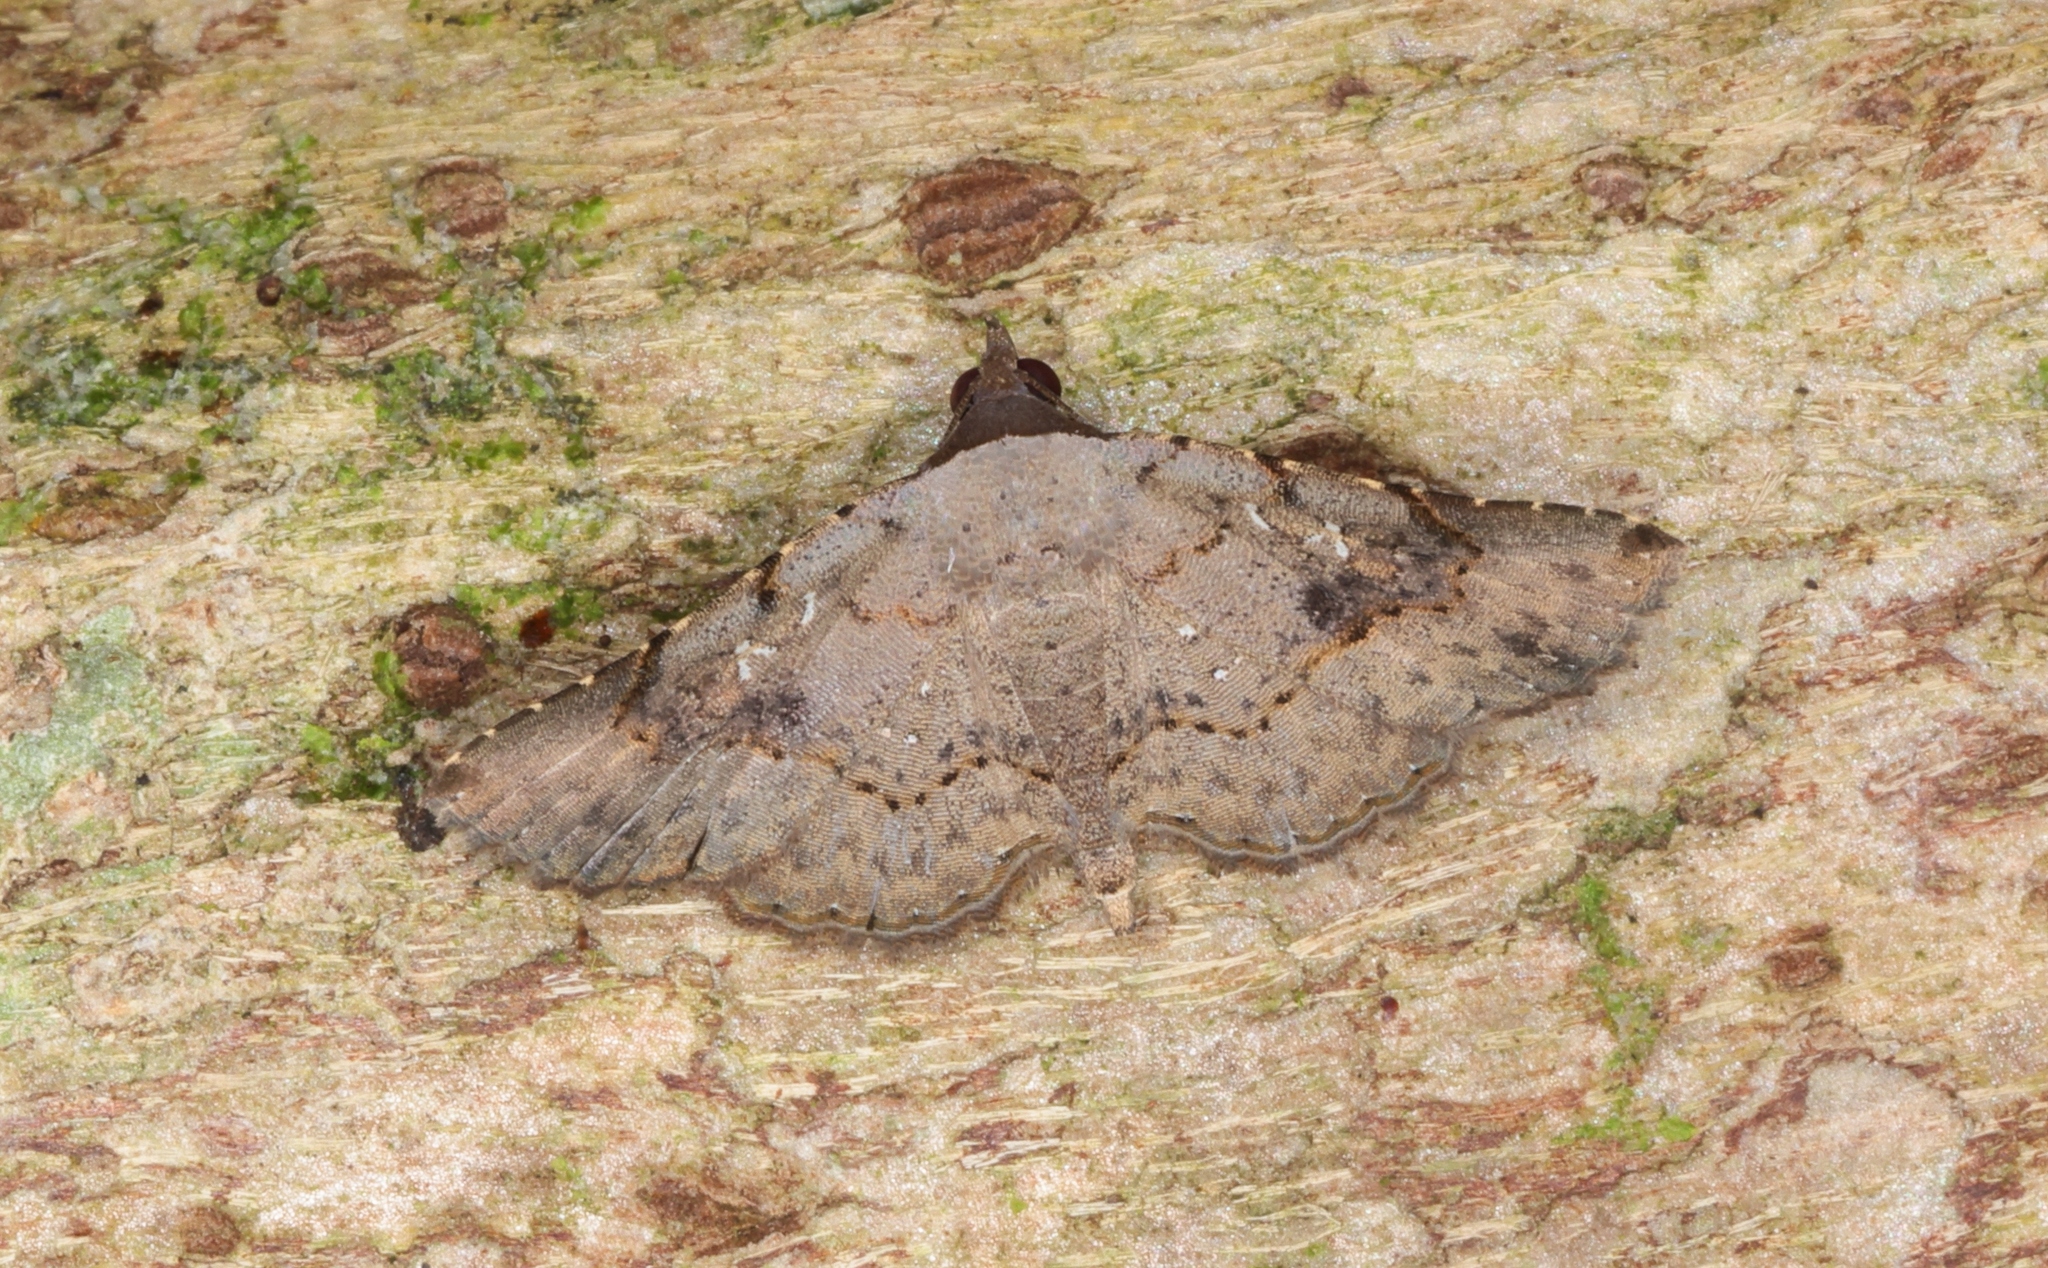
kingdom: Animalia
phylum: Arthropoda
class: Insecta
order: Lepidoptera
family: Erebidae
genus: Rhesala
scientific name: Rhesala imparata
